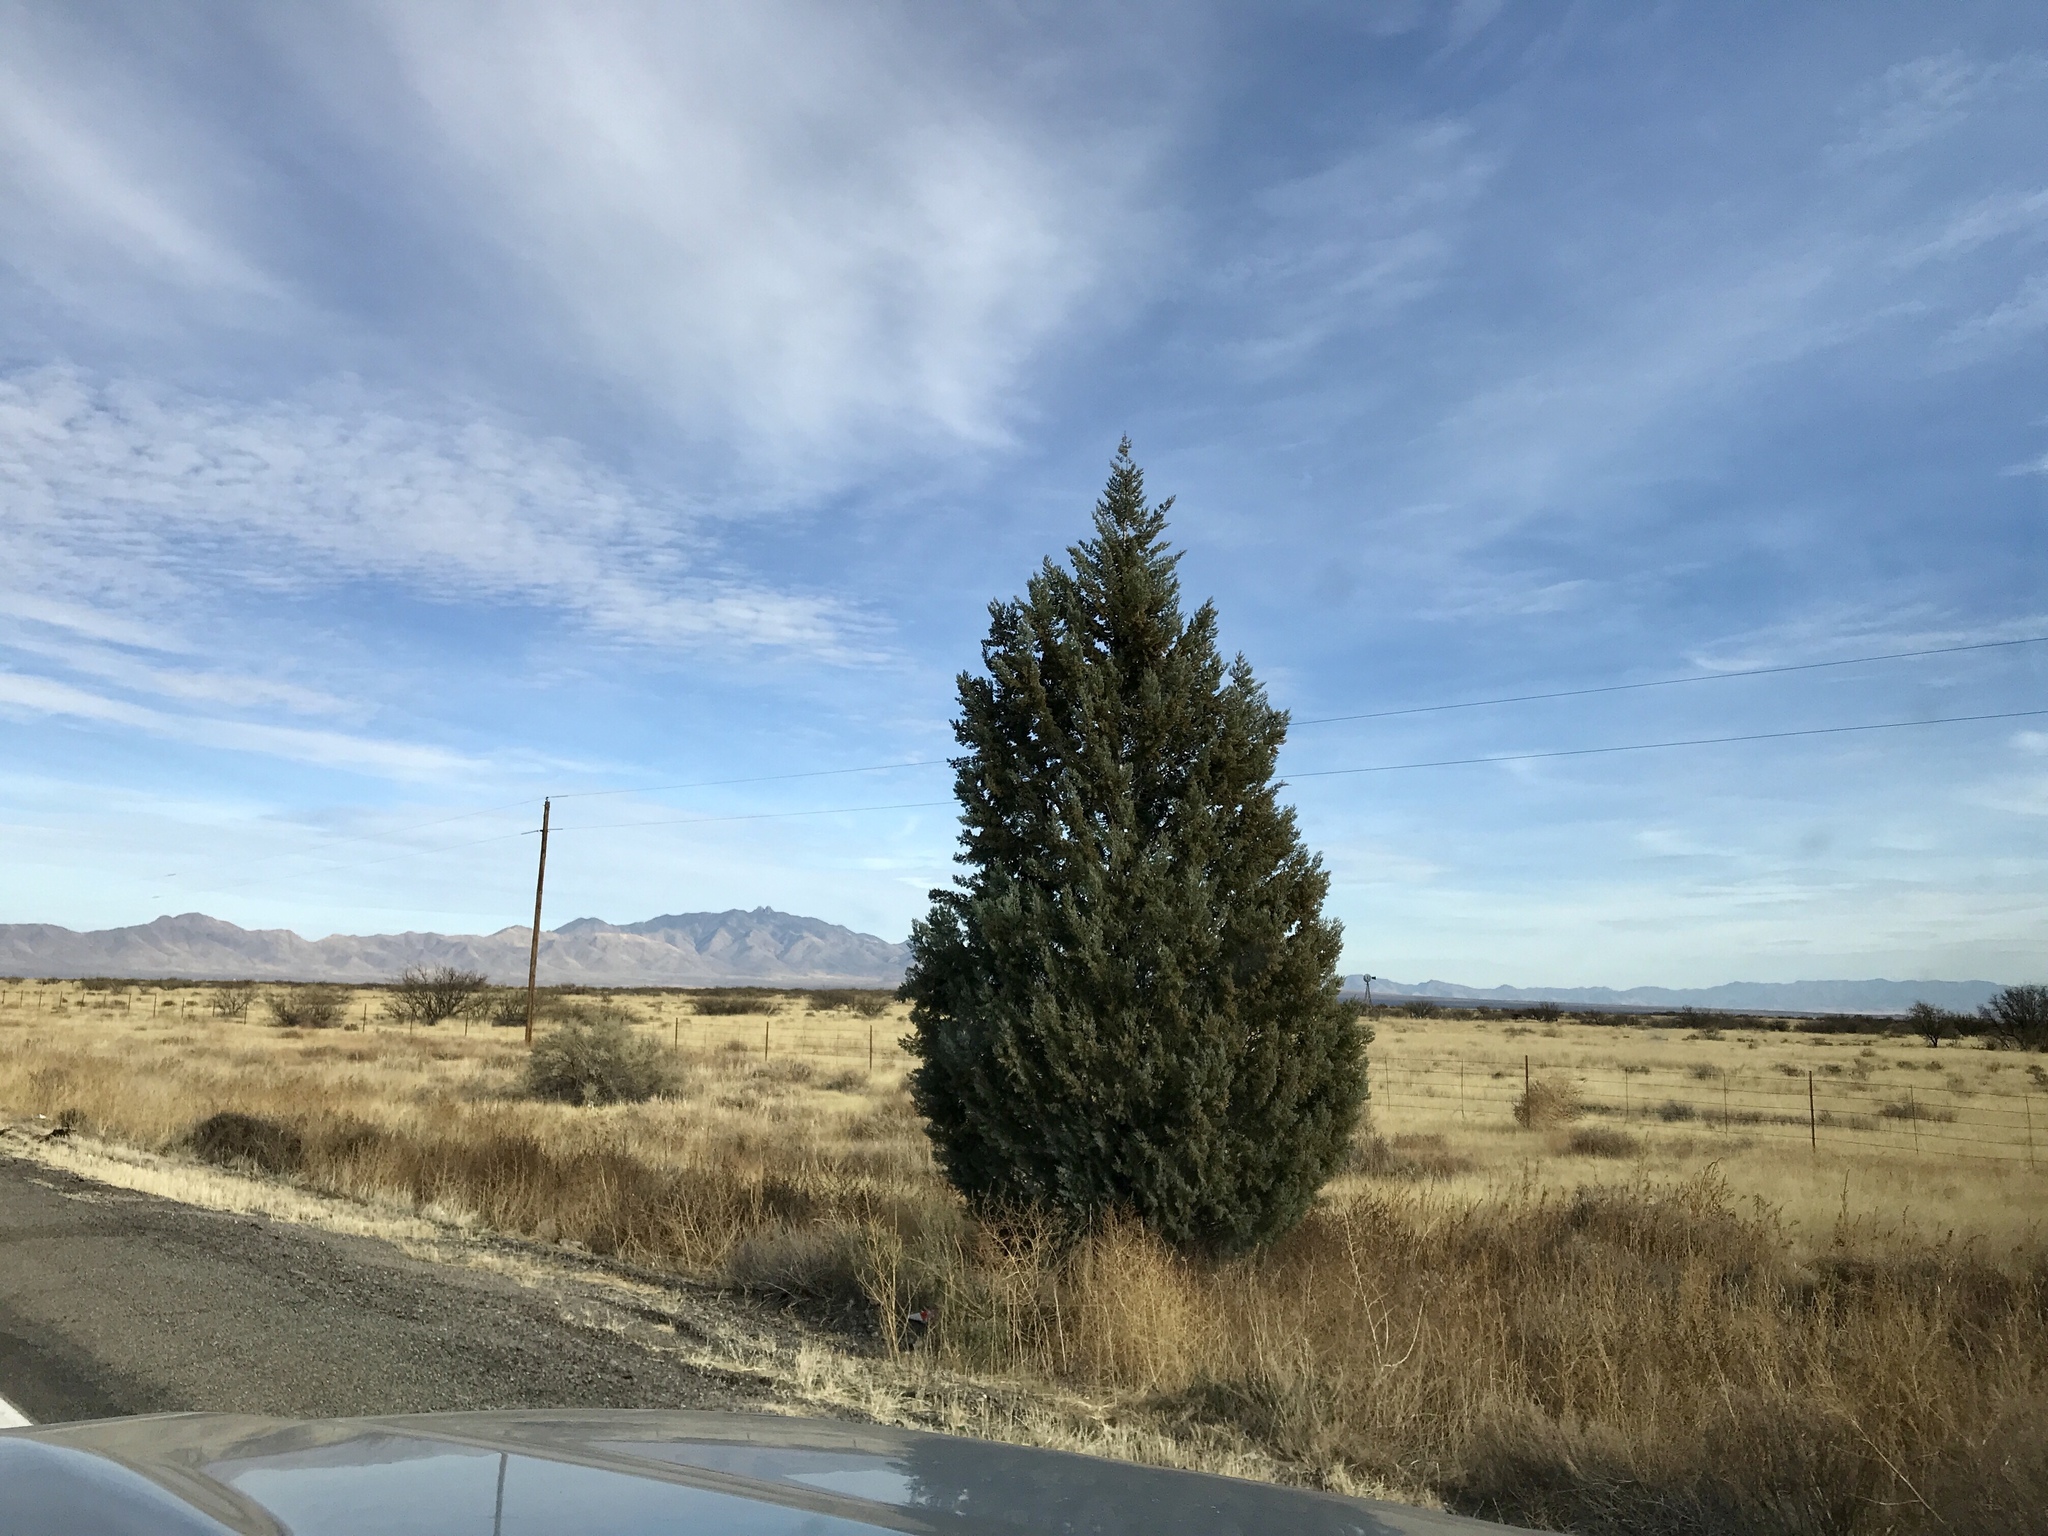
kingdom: Plantae
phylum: Tracheophyta
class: Pinopsida
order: Pinales
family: Cupressaceae
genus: Cupressus
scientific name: Cupressus arizonica
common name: Arizona cypress
